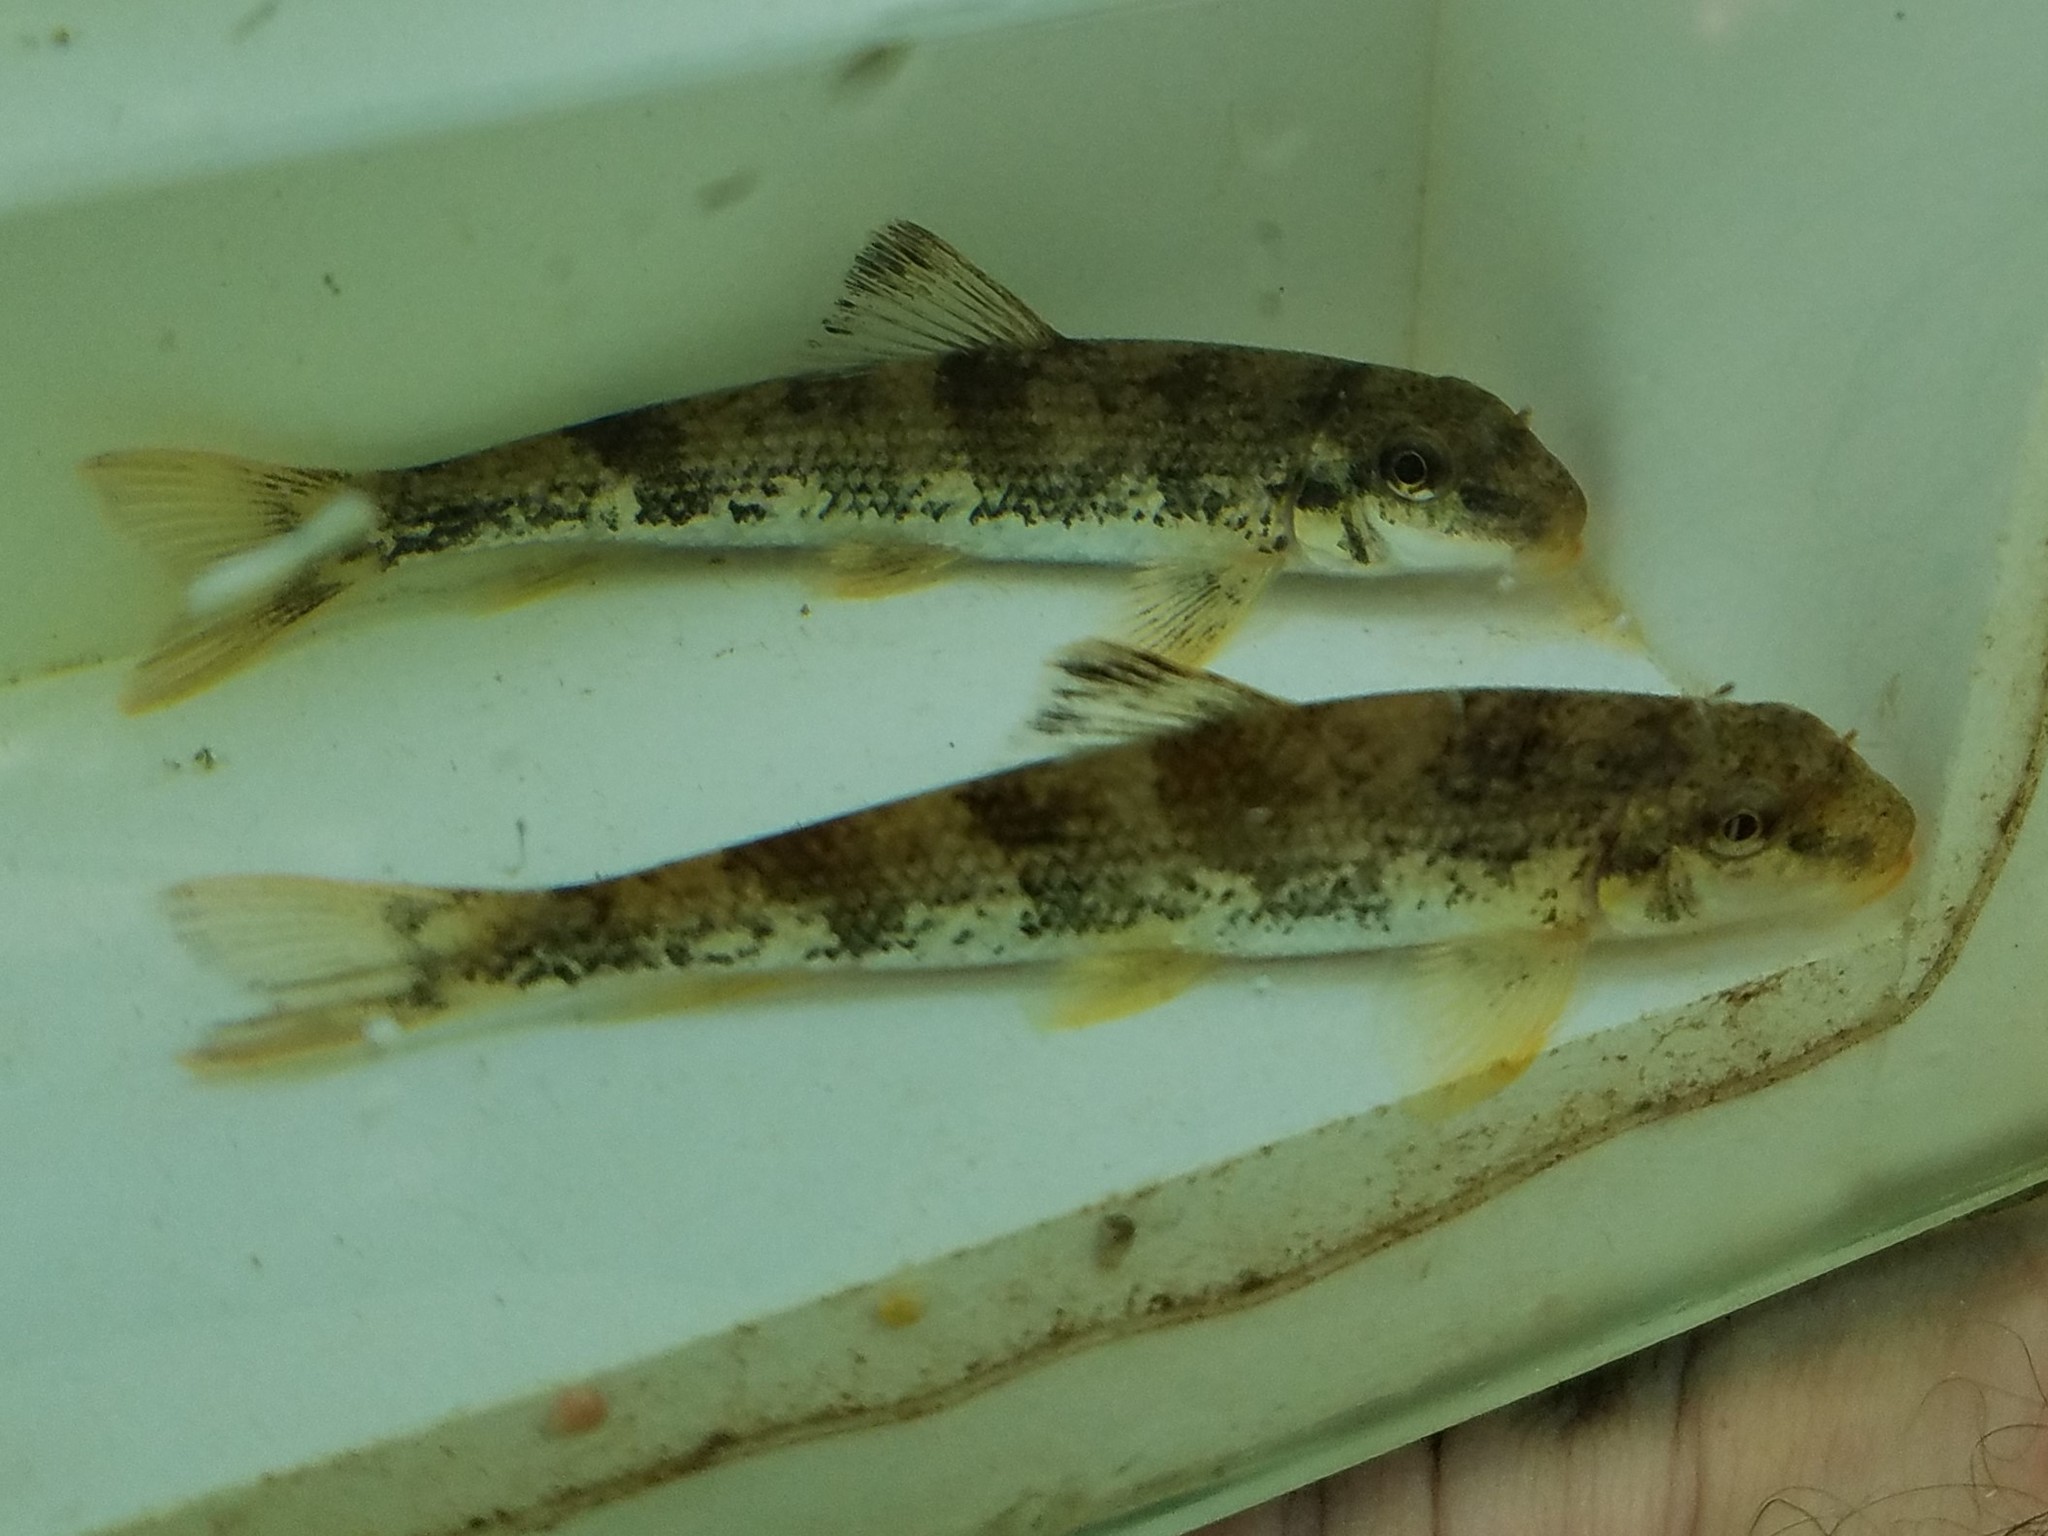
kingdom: Animalia
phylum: Chordata
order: Cypriniformes
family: Catostomidae
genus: Hypentelium
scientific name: Hypentelium etowanum
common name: Alabama hog sucker
